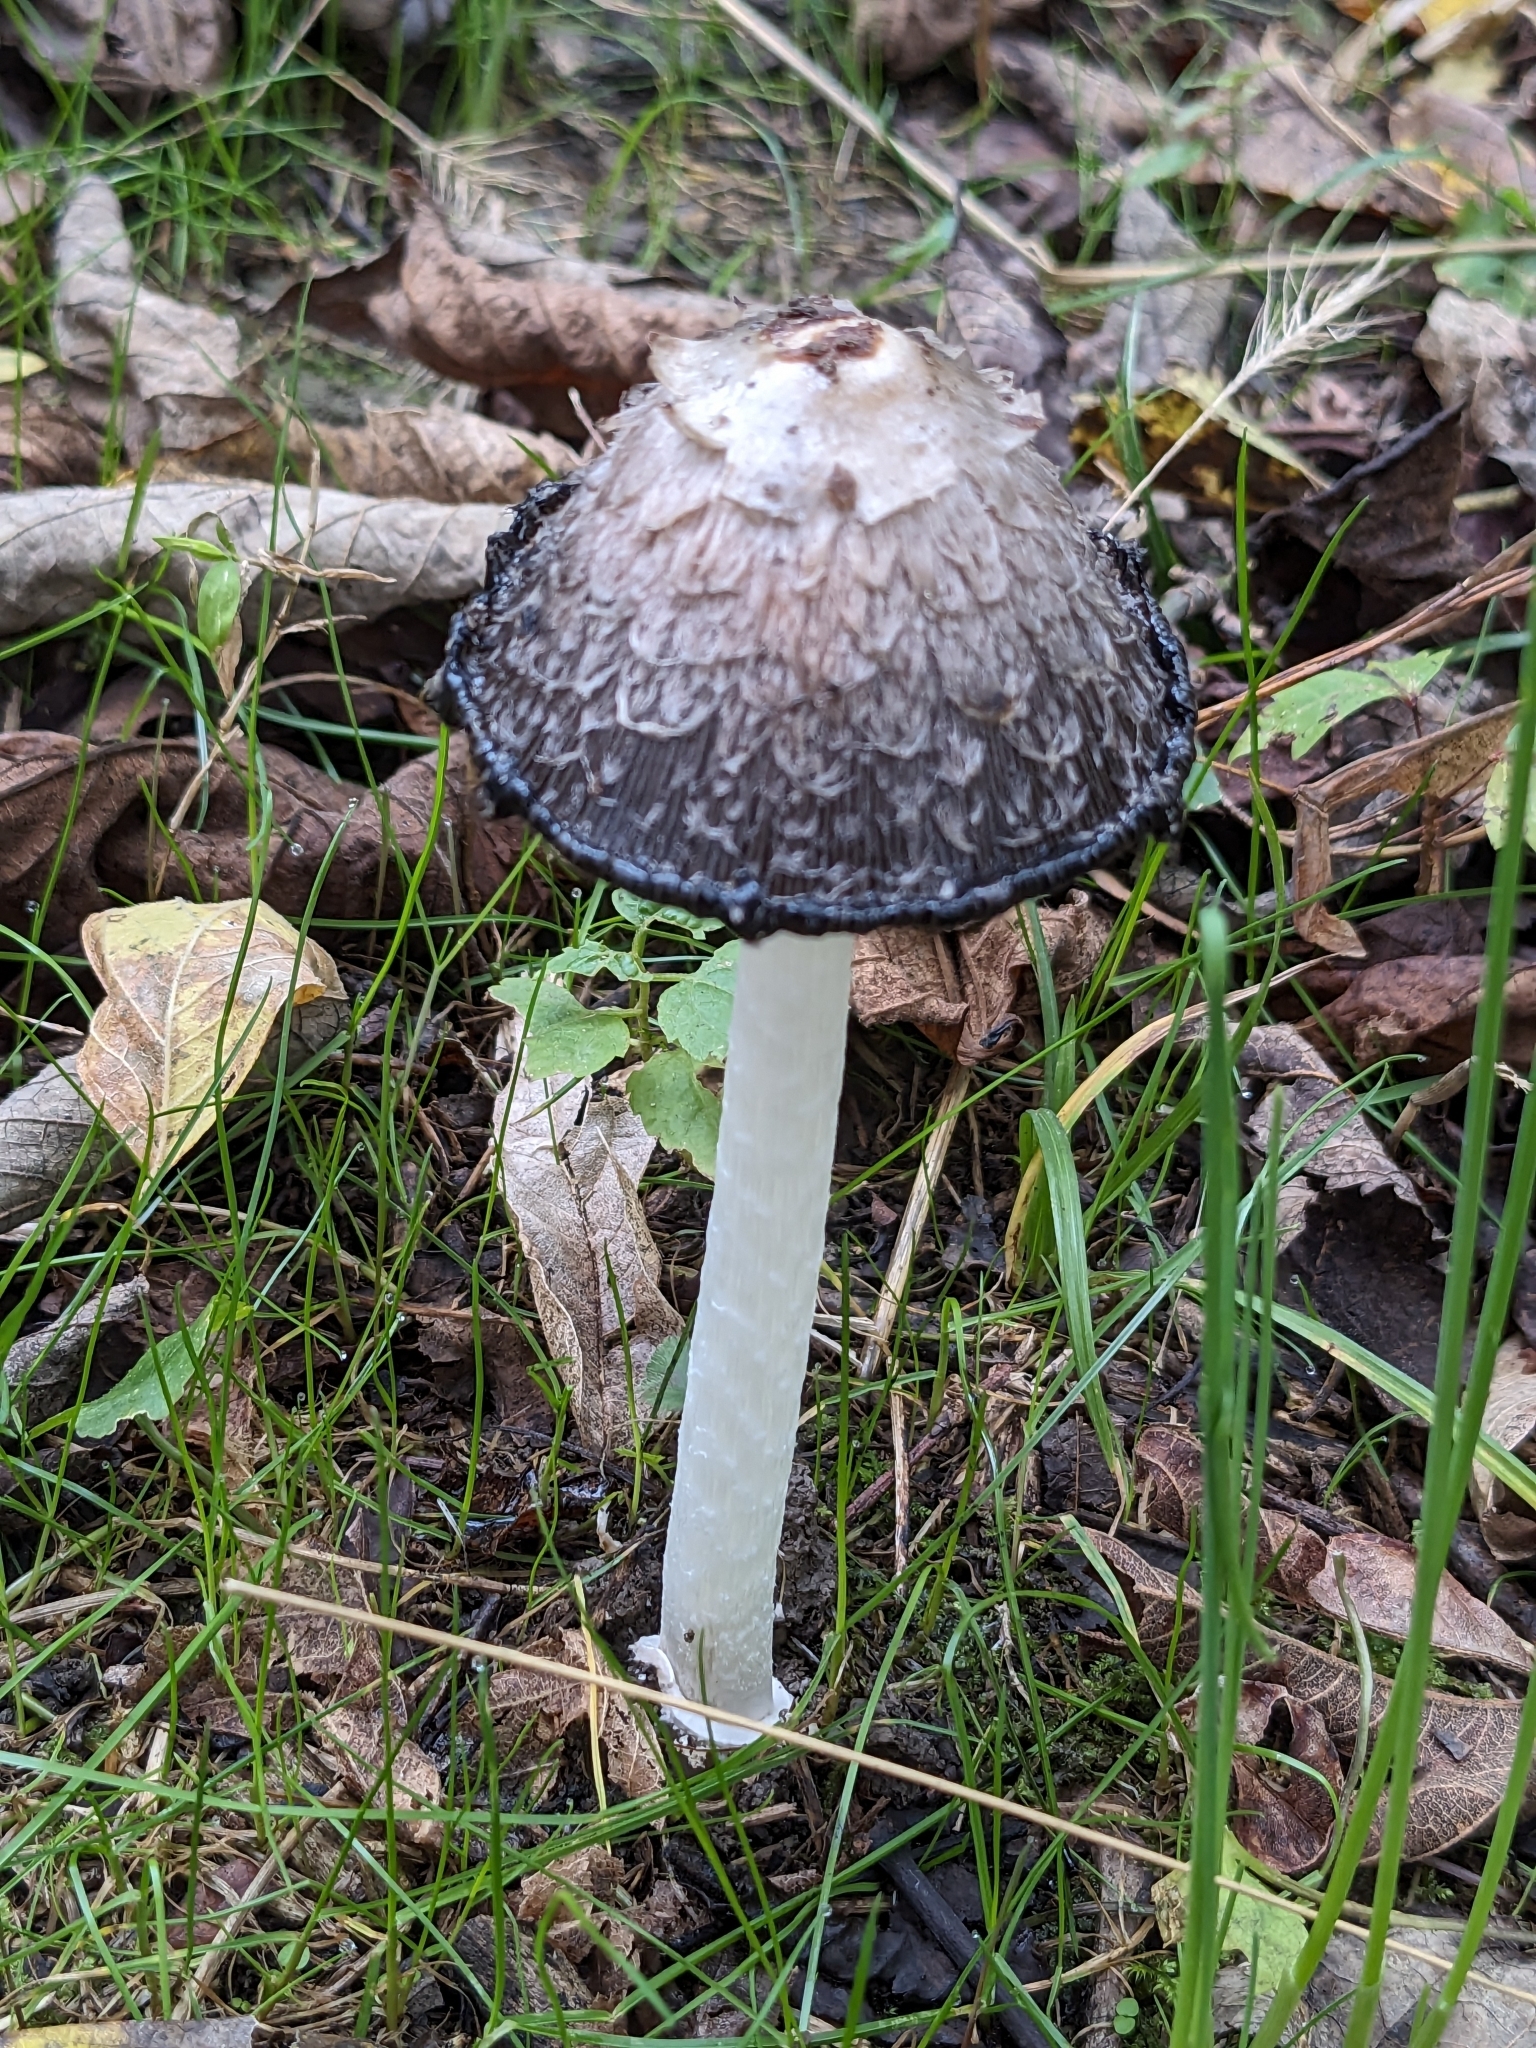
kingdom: Fungi
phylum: Basidiomycota
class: Agaricomycetes
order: Agaricales
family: Agaricaceae
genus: Coprinus
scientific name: Coprinus comatus
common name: Lawyer's wig
